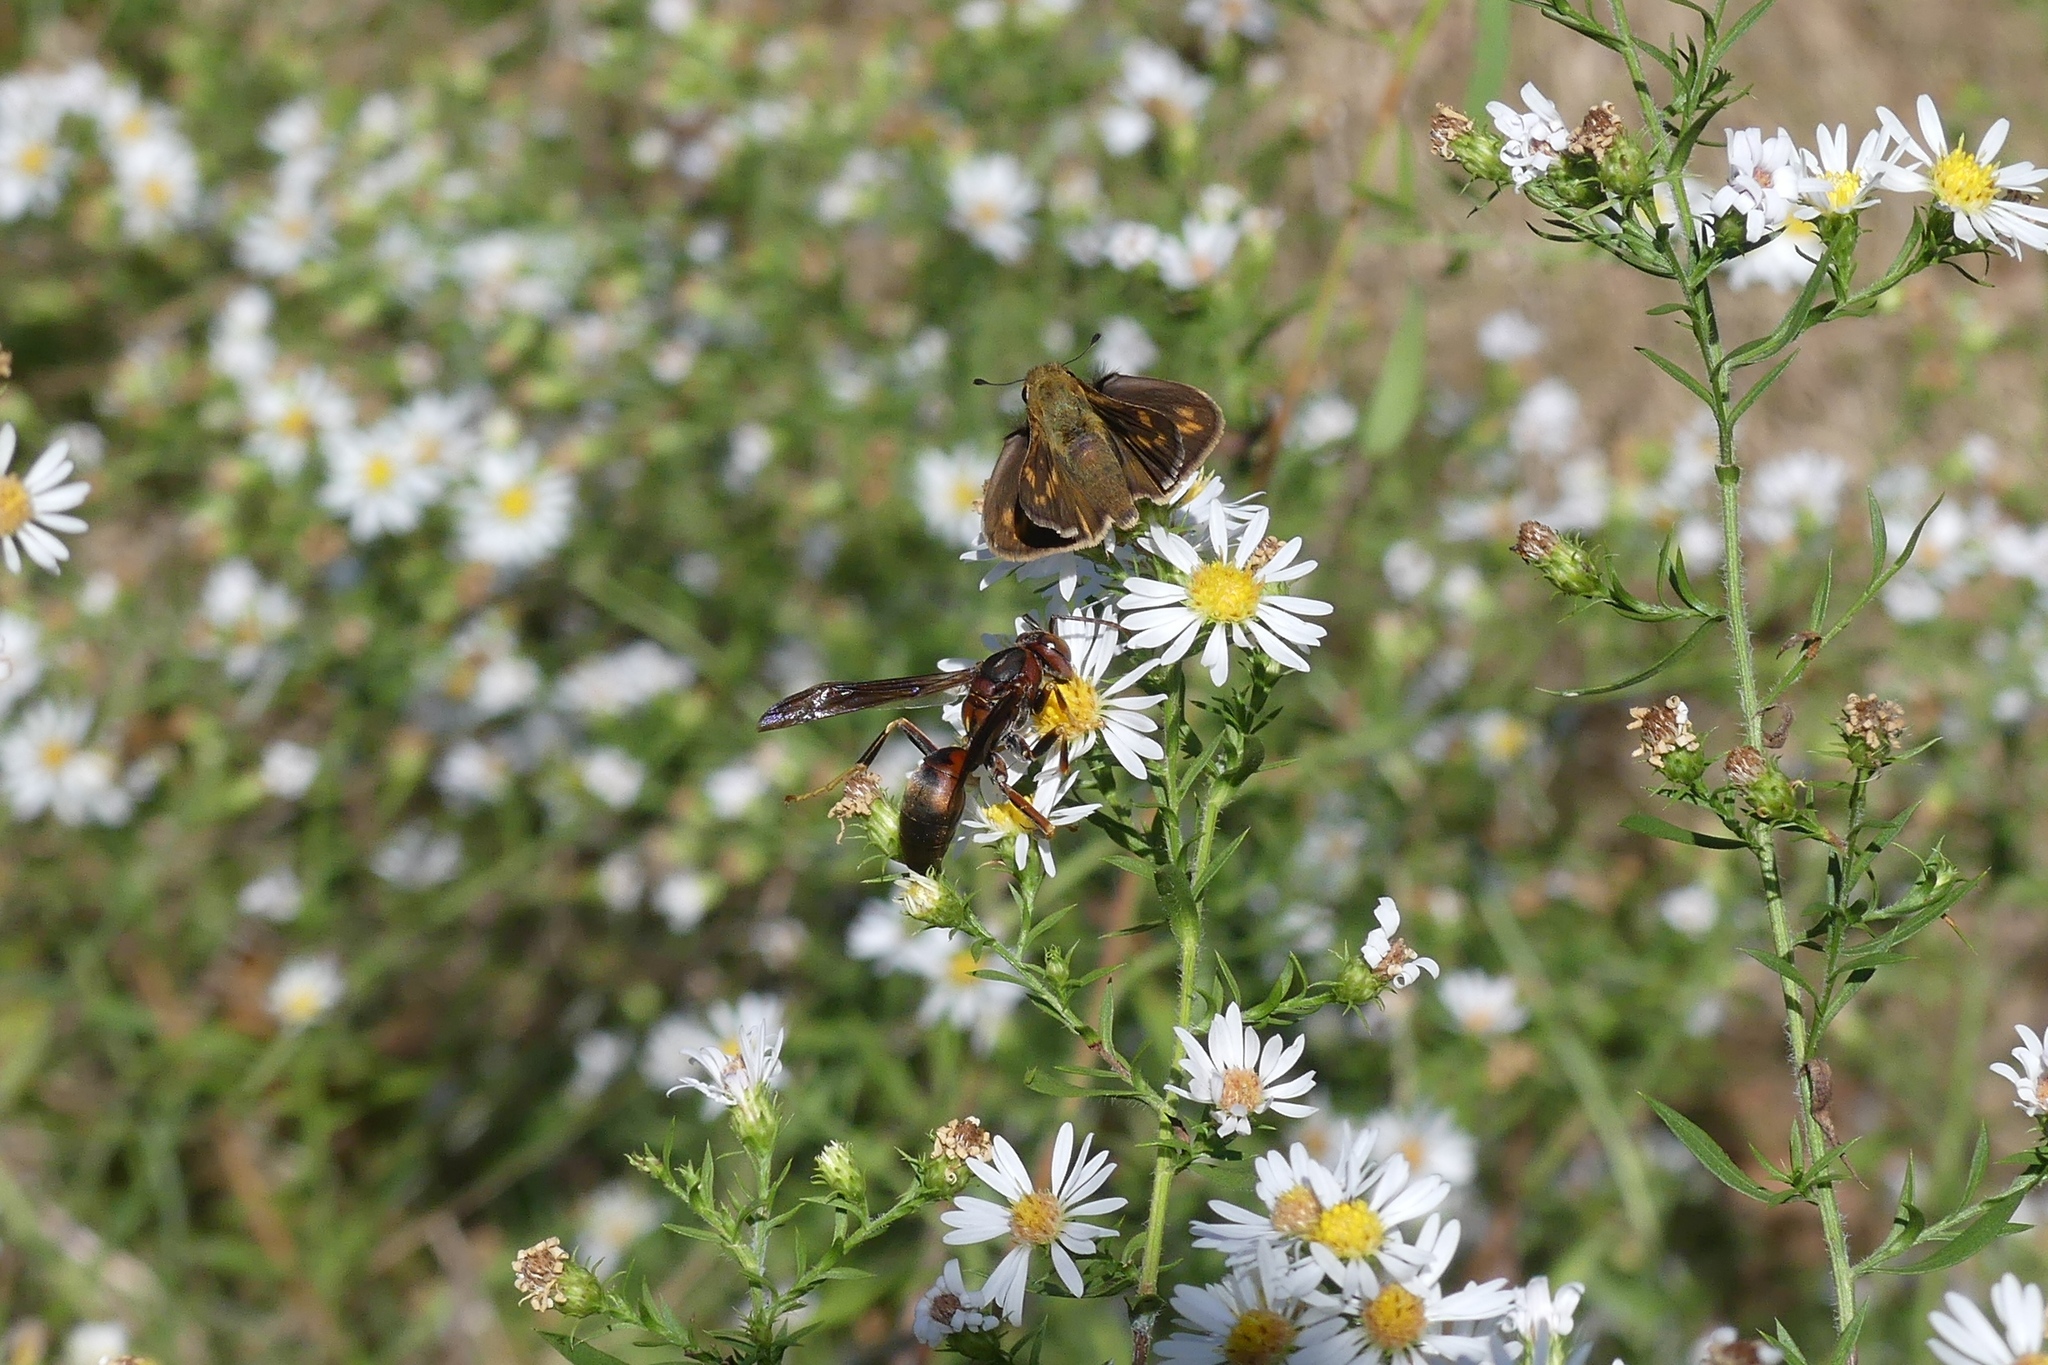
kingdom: Animalia
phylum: Arthropoda
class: Insecta
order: Hymenoptera
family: Eumenidae
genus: Polistes
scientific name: Polistes fuscatus
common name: Dark paper wasp
